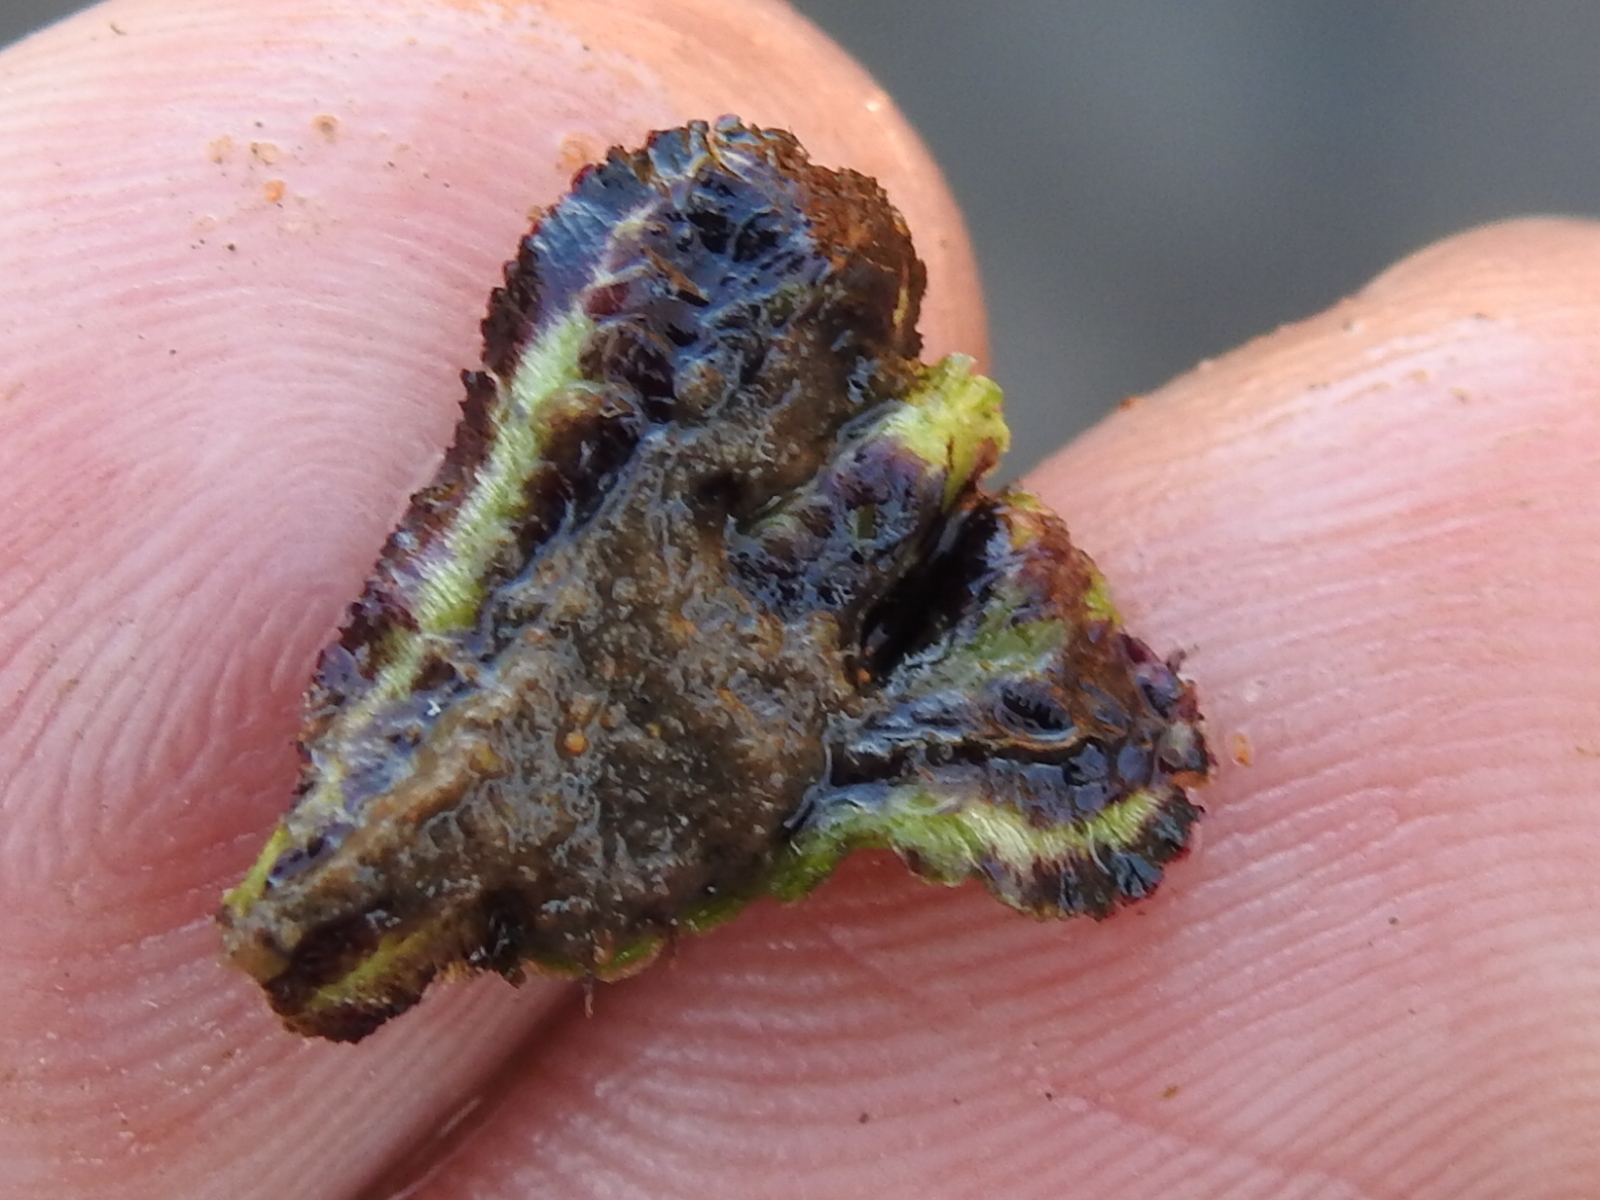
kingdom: Plantae
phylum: Marchantiophyta
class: Marchantiopsida
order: Marchantiales
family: Aytoniaceae
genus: Reboulia
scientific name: Reboulia hemisphaerica
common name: Purple-margined liverwort
